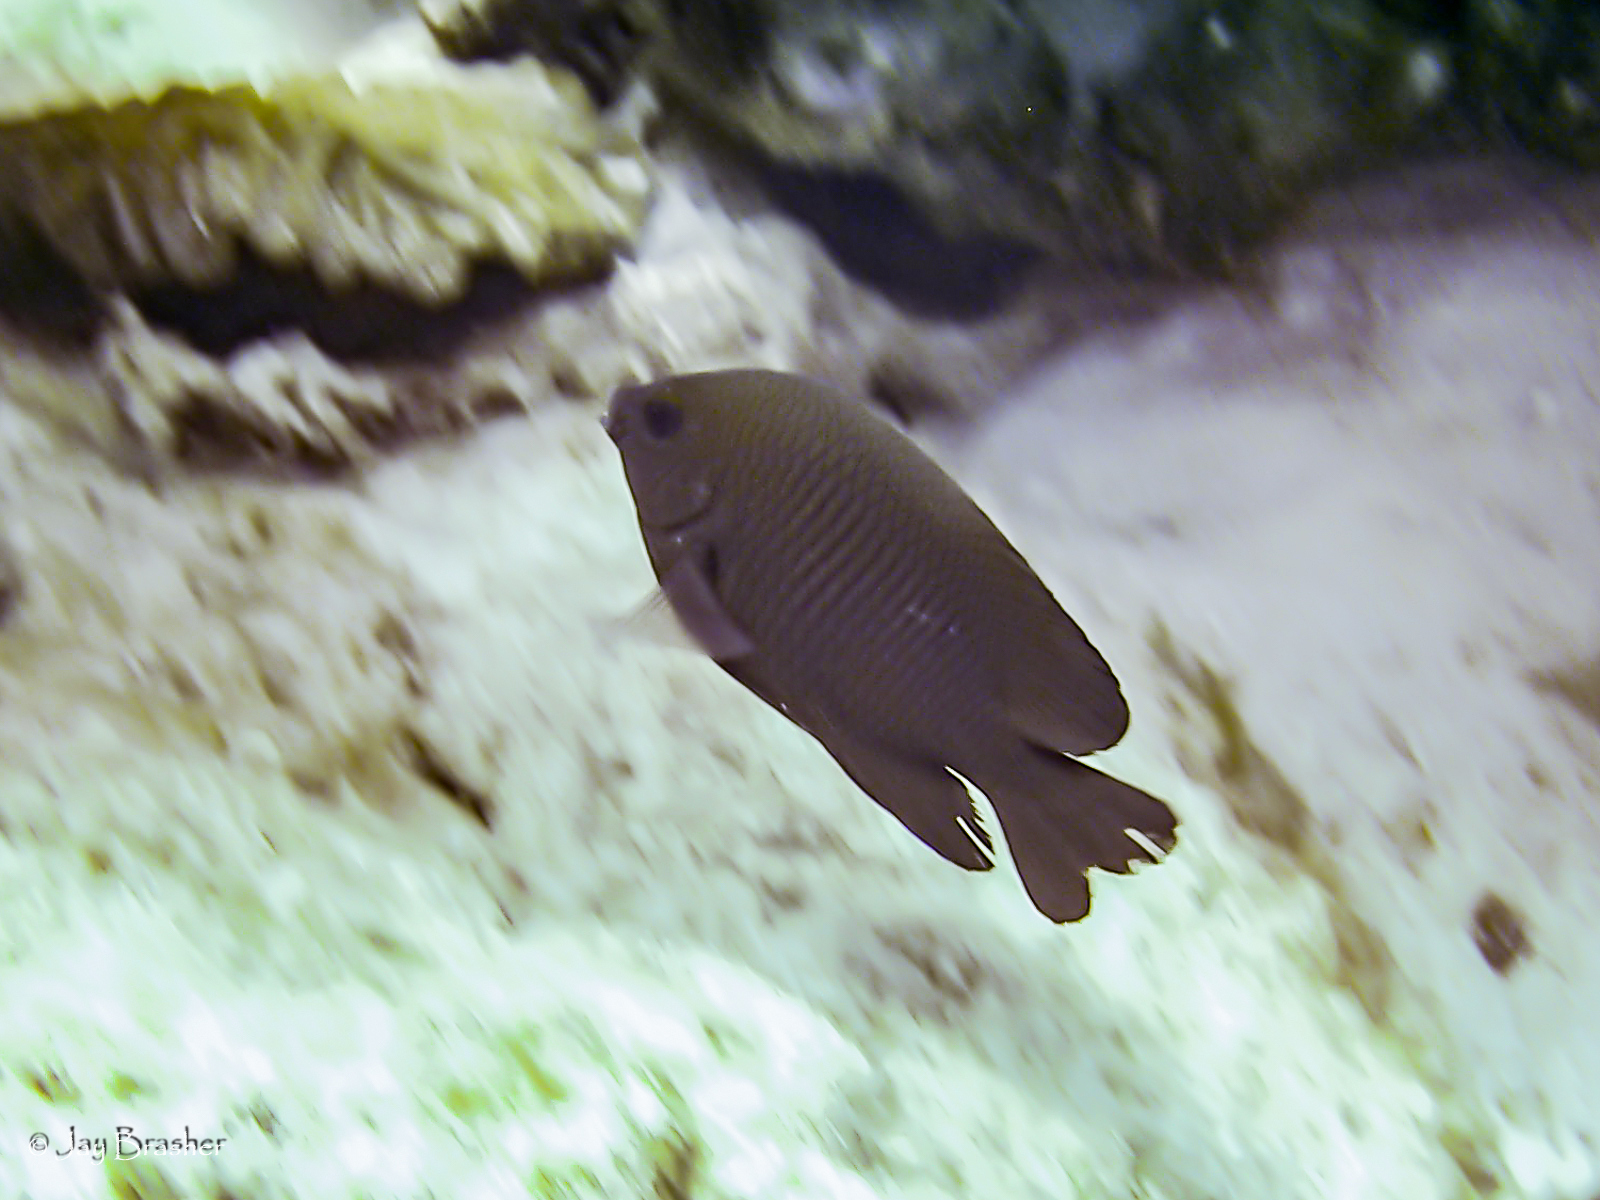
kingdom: Animalia
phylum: Chordata
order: Perciformes
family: Pomacentridae
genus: Stegastes
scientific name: Stegastes diencaeus
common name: Longfin damselfish
